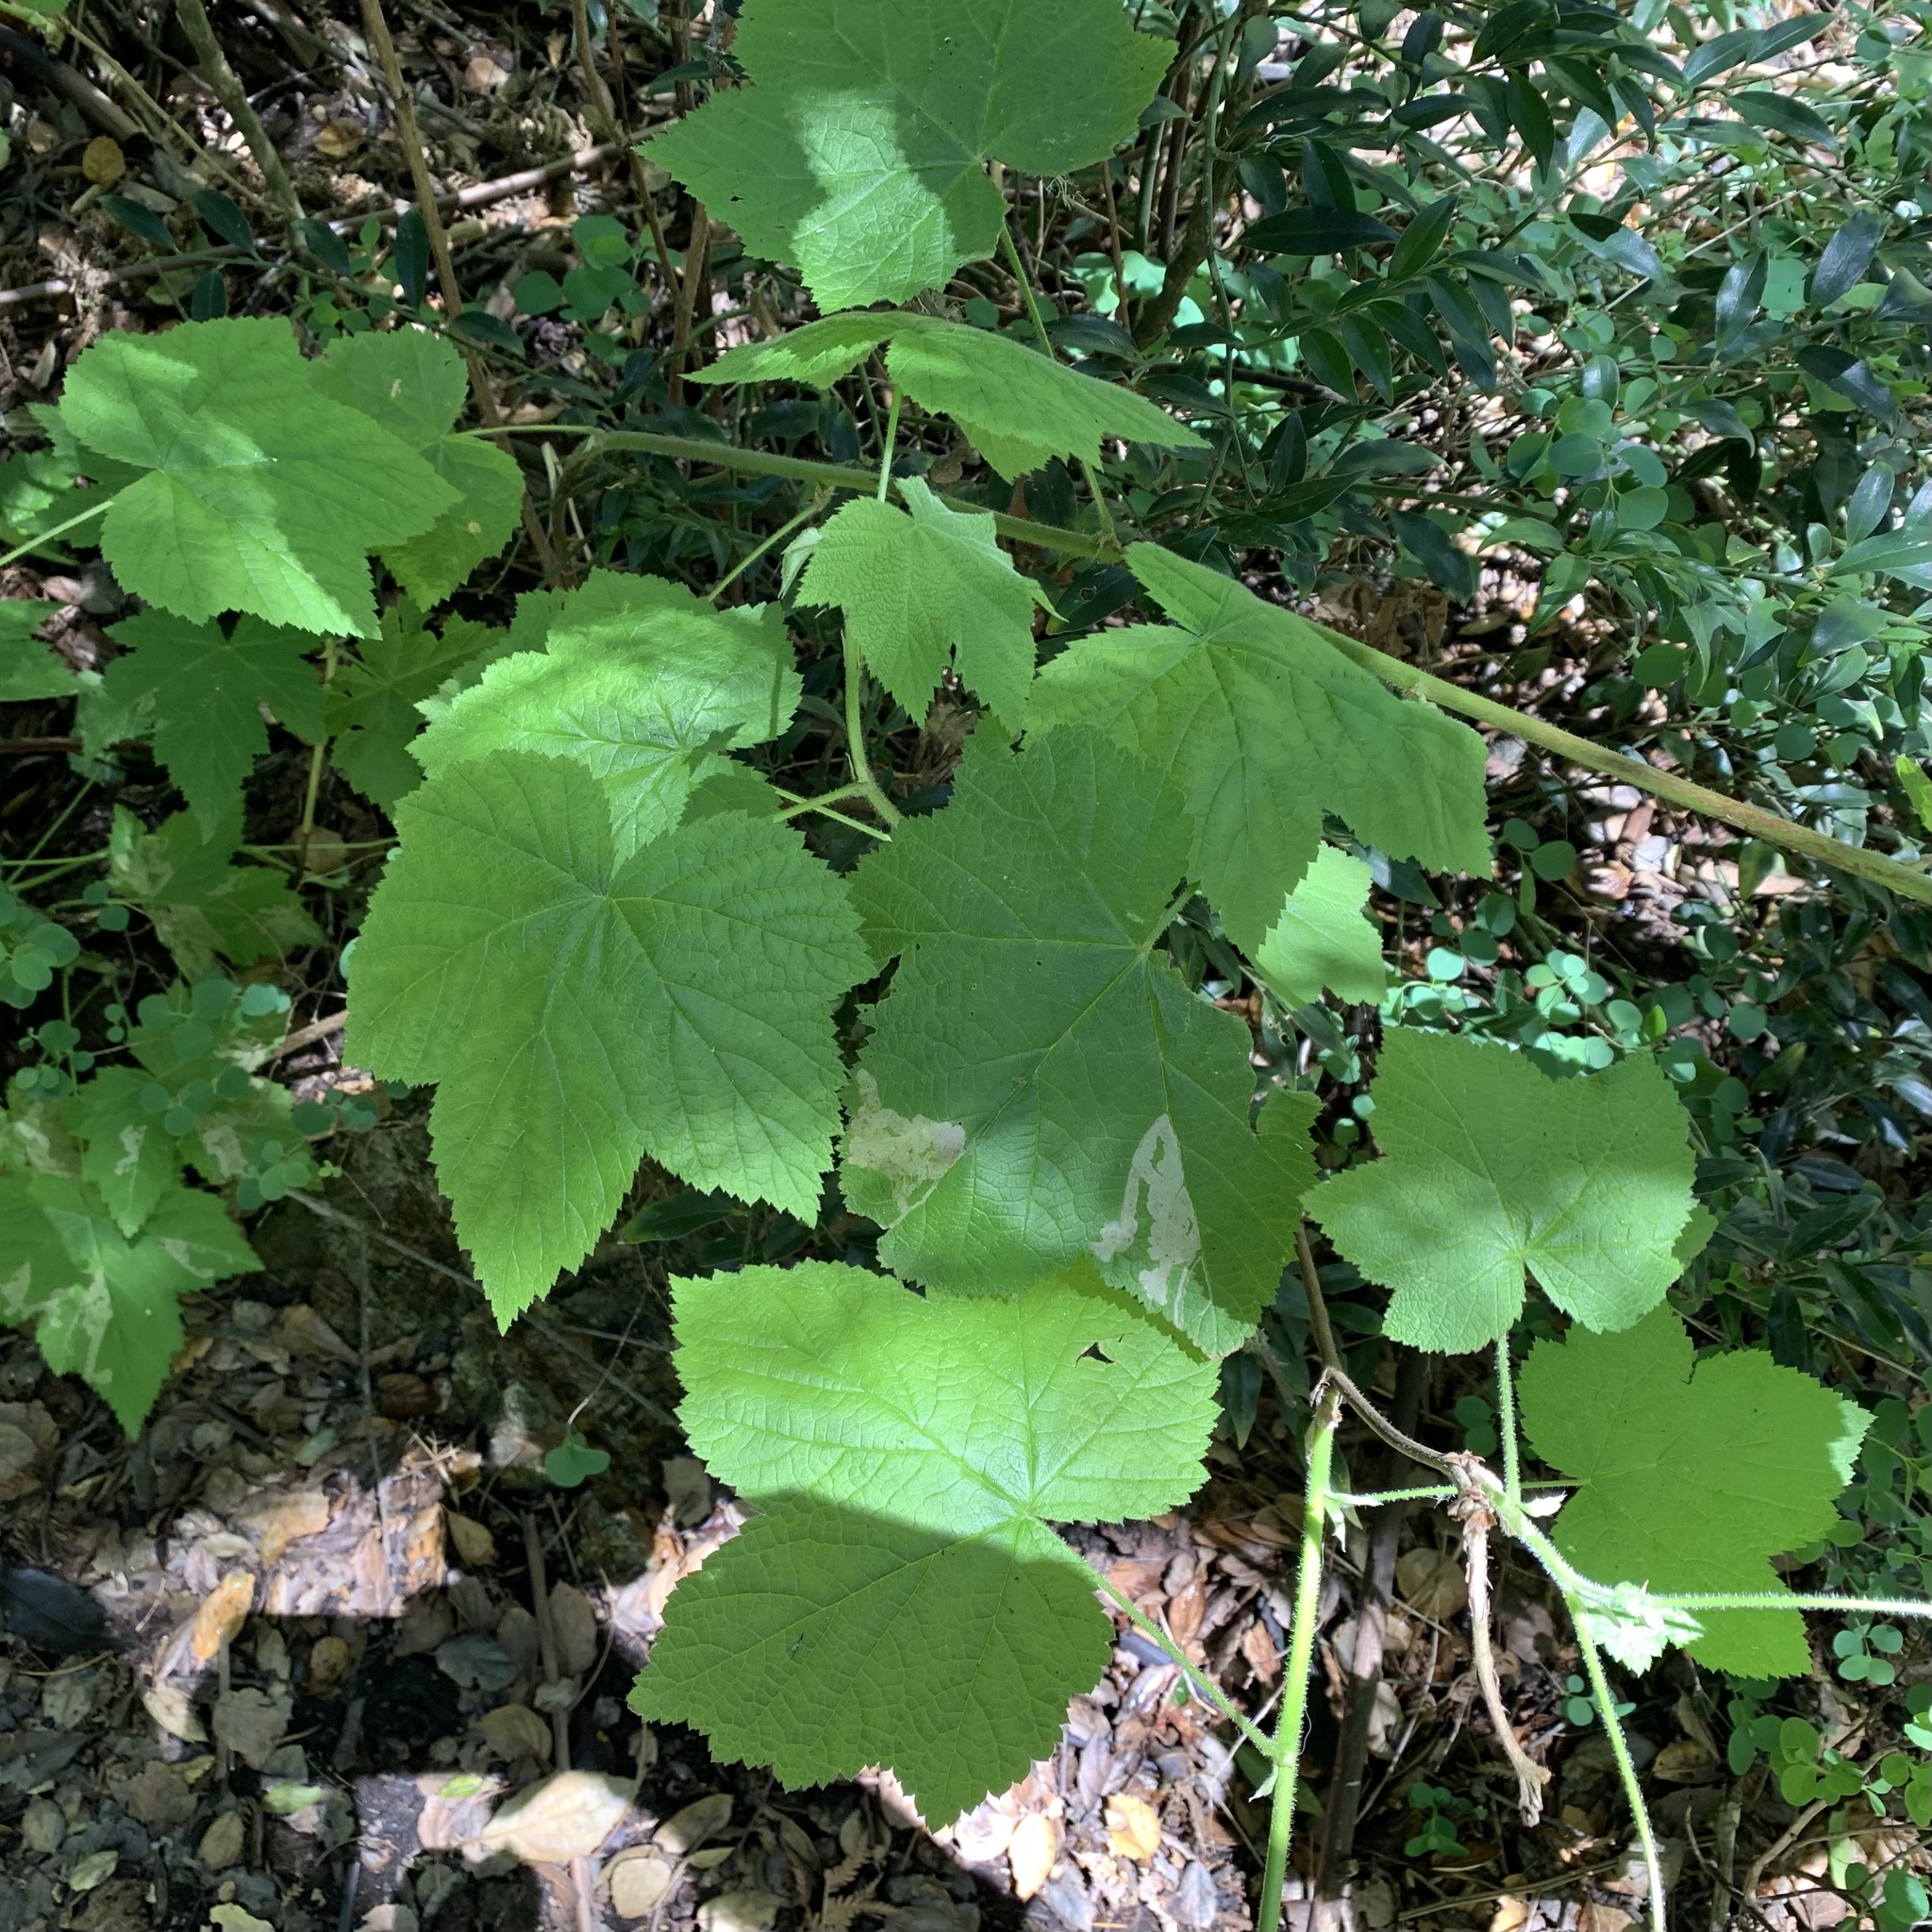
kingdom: Plantae
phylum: Tracheophyta
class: Magnoliopsida
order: Rosales
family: Rosaceae
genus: Rubus
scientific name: Rubus parviflorus
